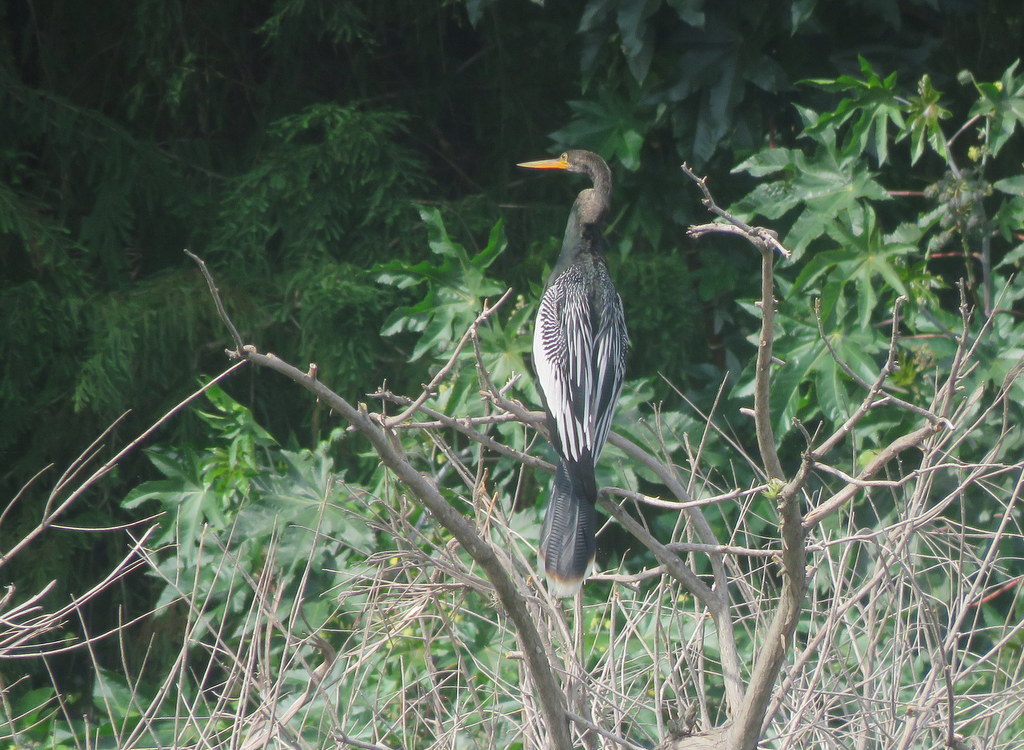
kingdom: Animalia
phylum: Chordata
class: Aves
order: Suliformes
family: Anhingidae
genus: Anhinga
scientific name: Anhinga anhinga
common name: Anhinga
